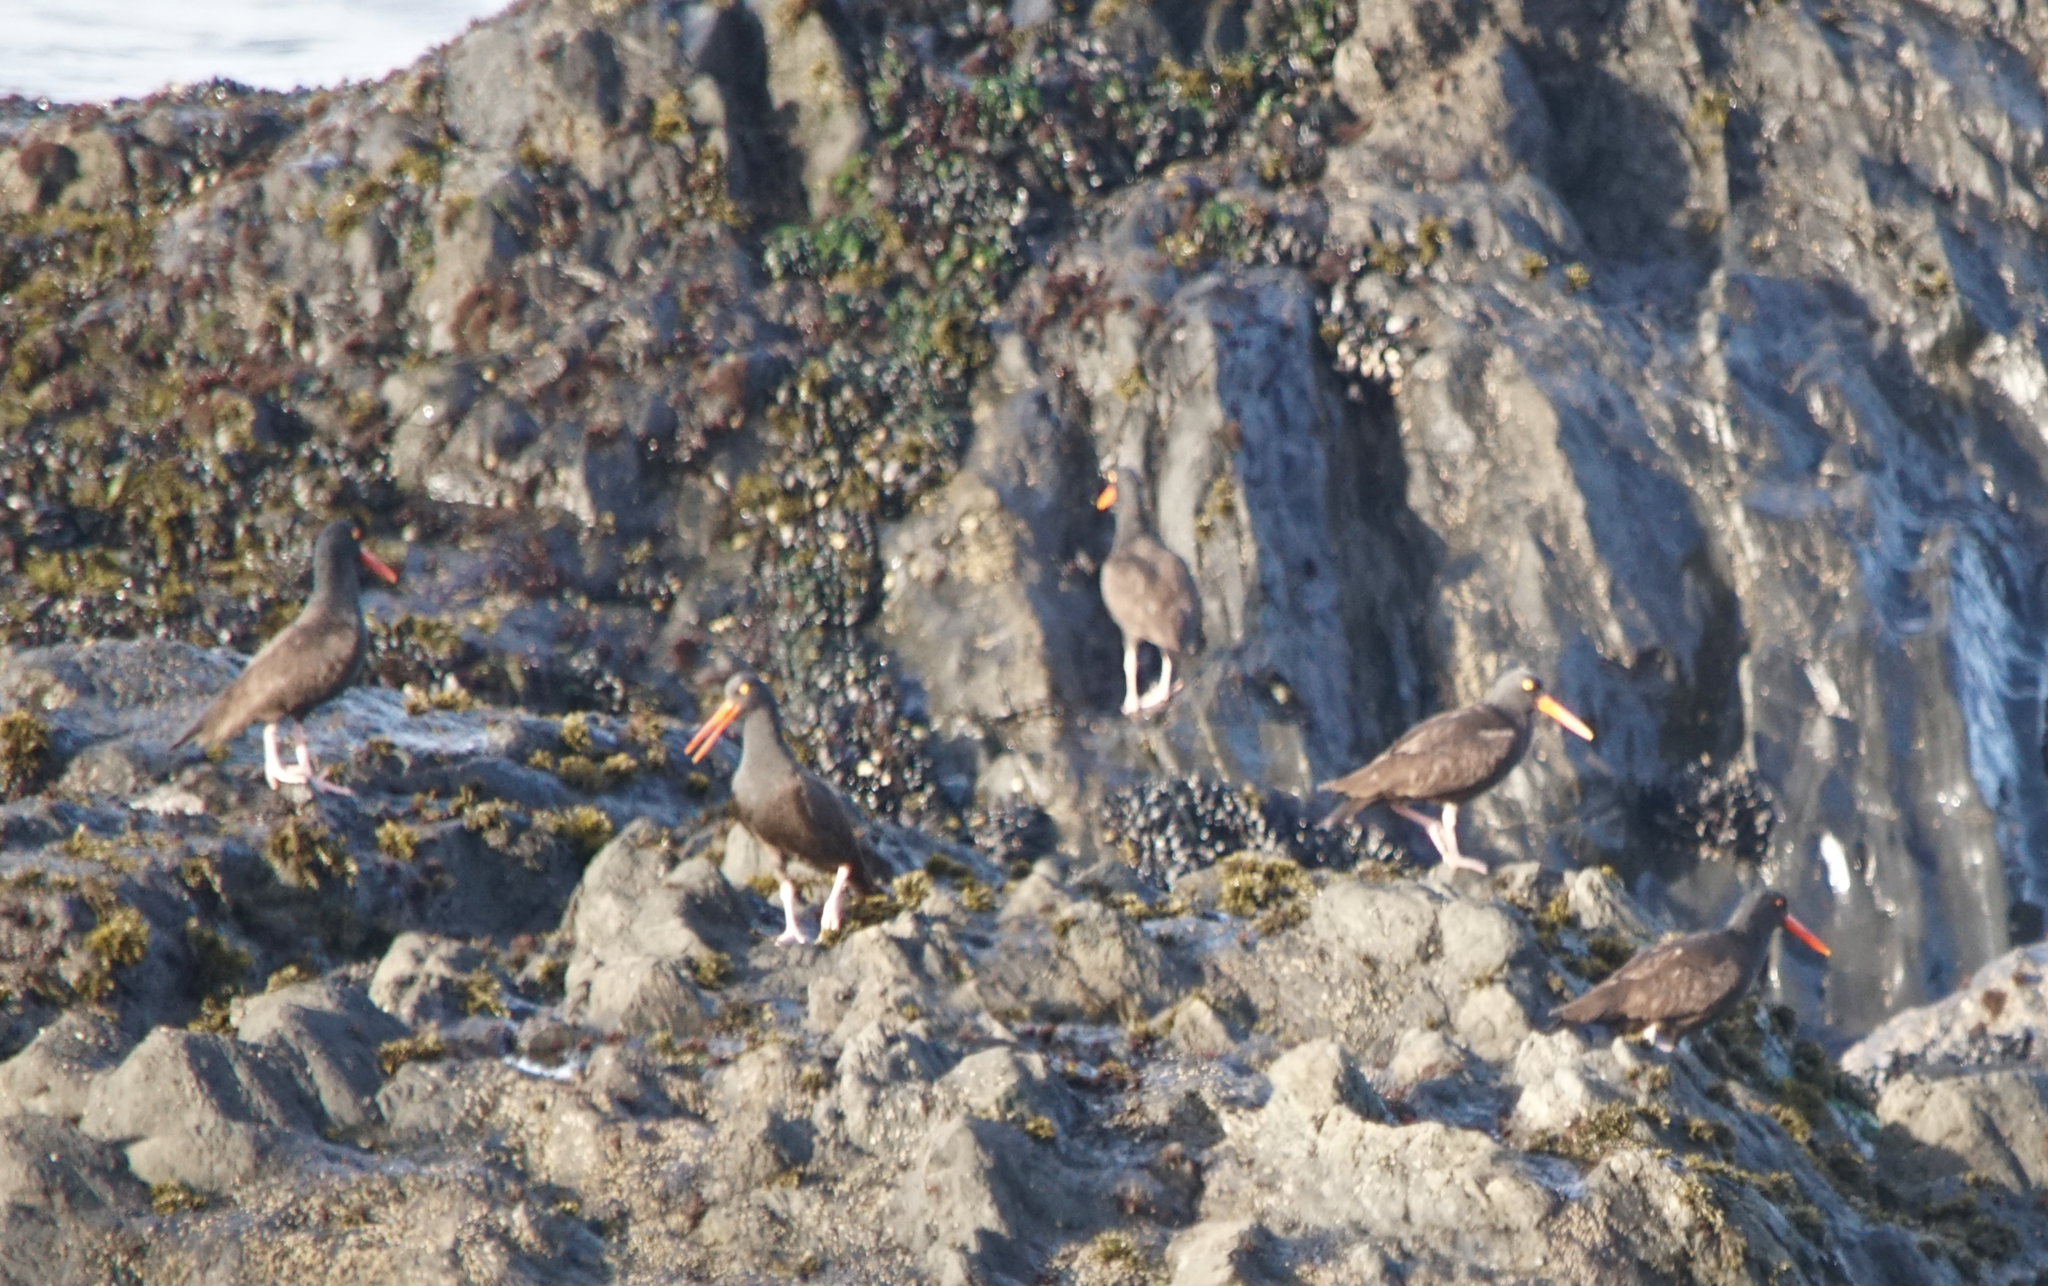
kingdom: Animalia
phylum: Chordata
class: Aves
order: Charadriiformes
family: Haematopodidae
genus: Haematopus
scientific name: Haematopus bachmani
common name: Black oystercatcher
